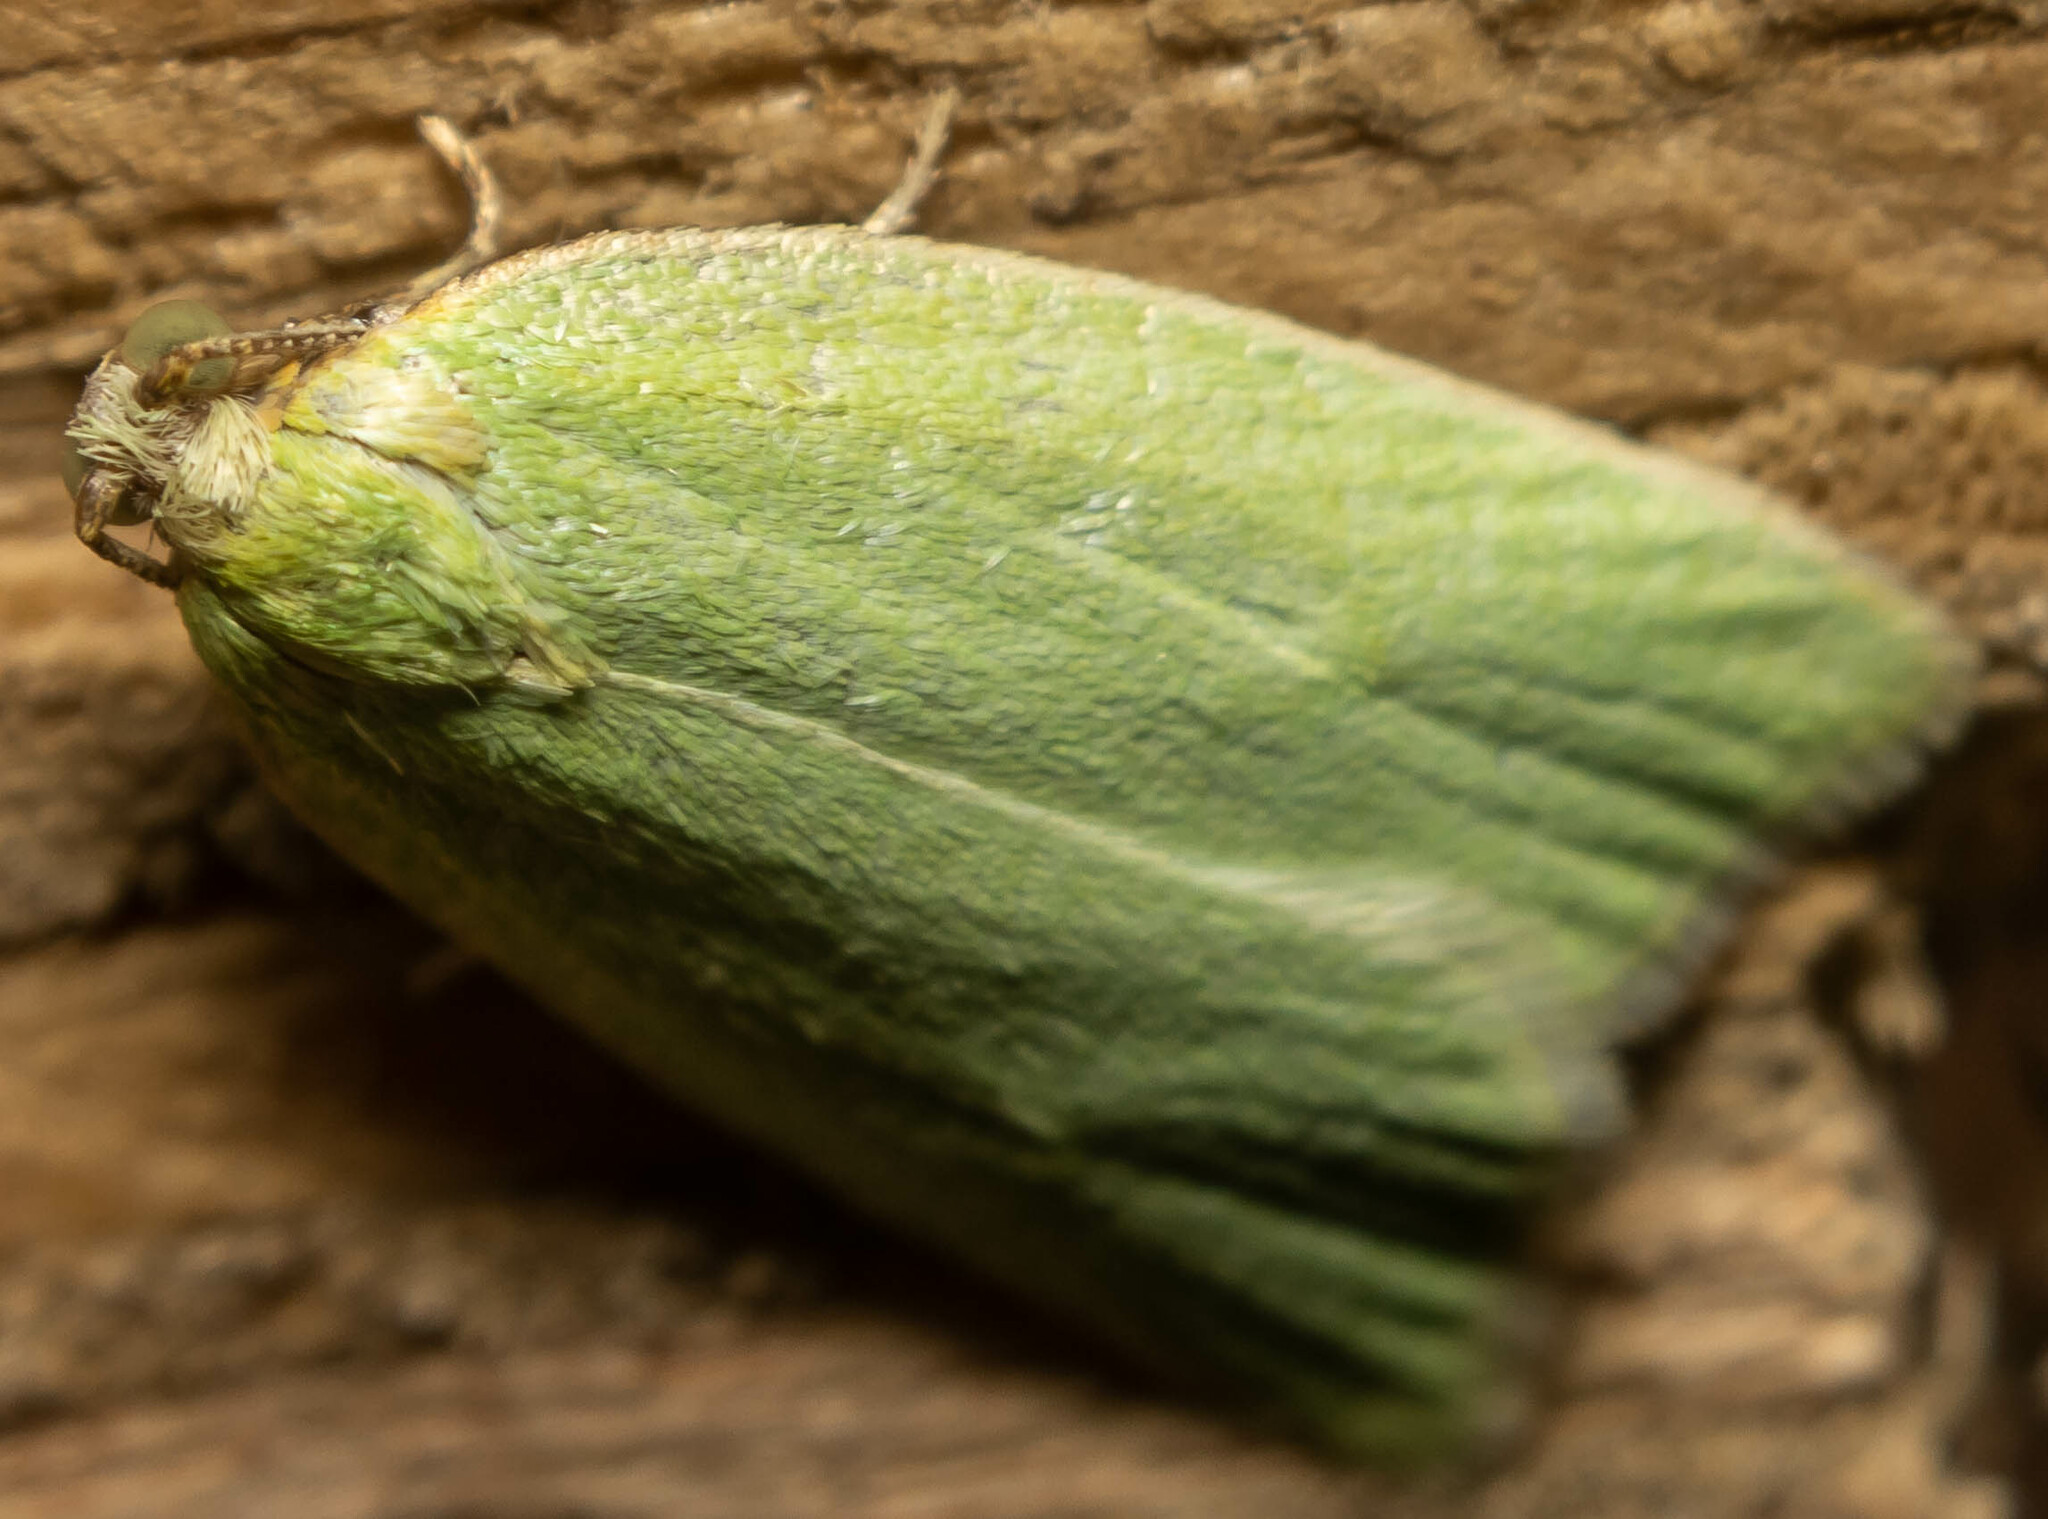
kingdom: Animalia
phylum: Arthropoda
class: Insecta
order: Lepidoptera
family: Tortricidae
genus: Tortrix
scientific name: Tortrix viridana
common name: Green oak tortrix
